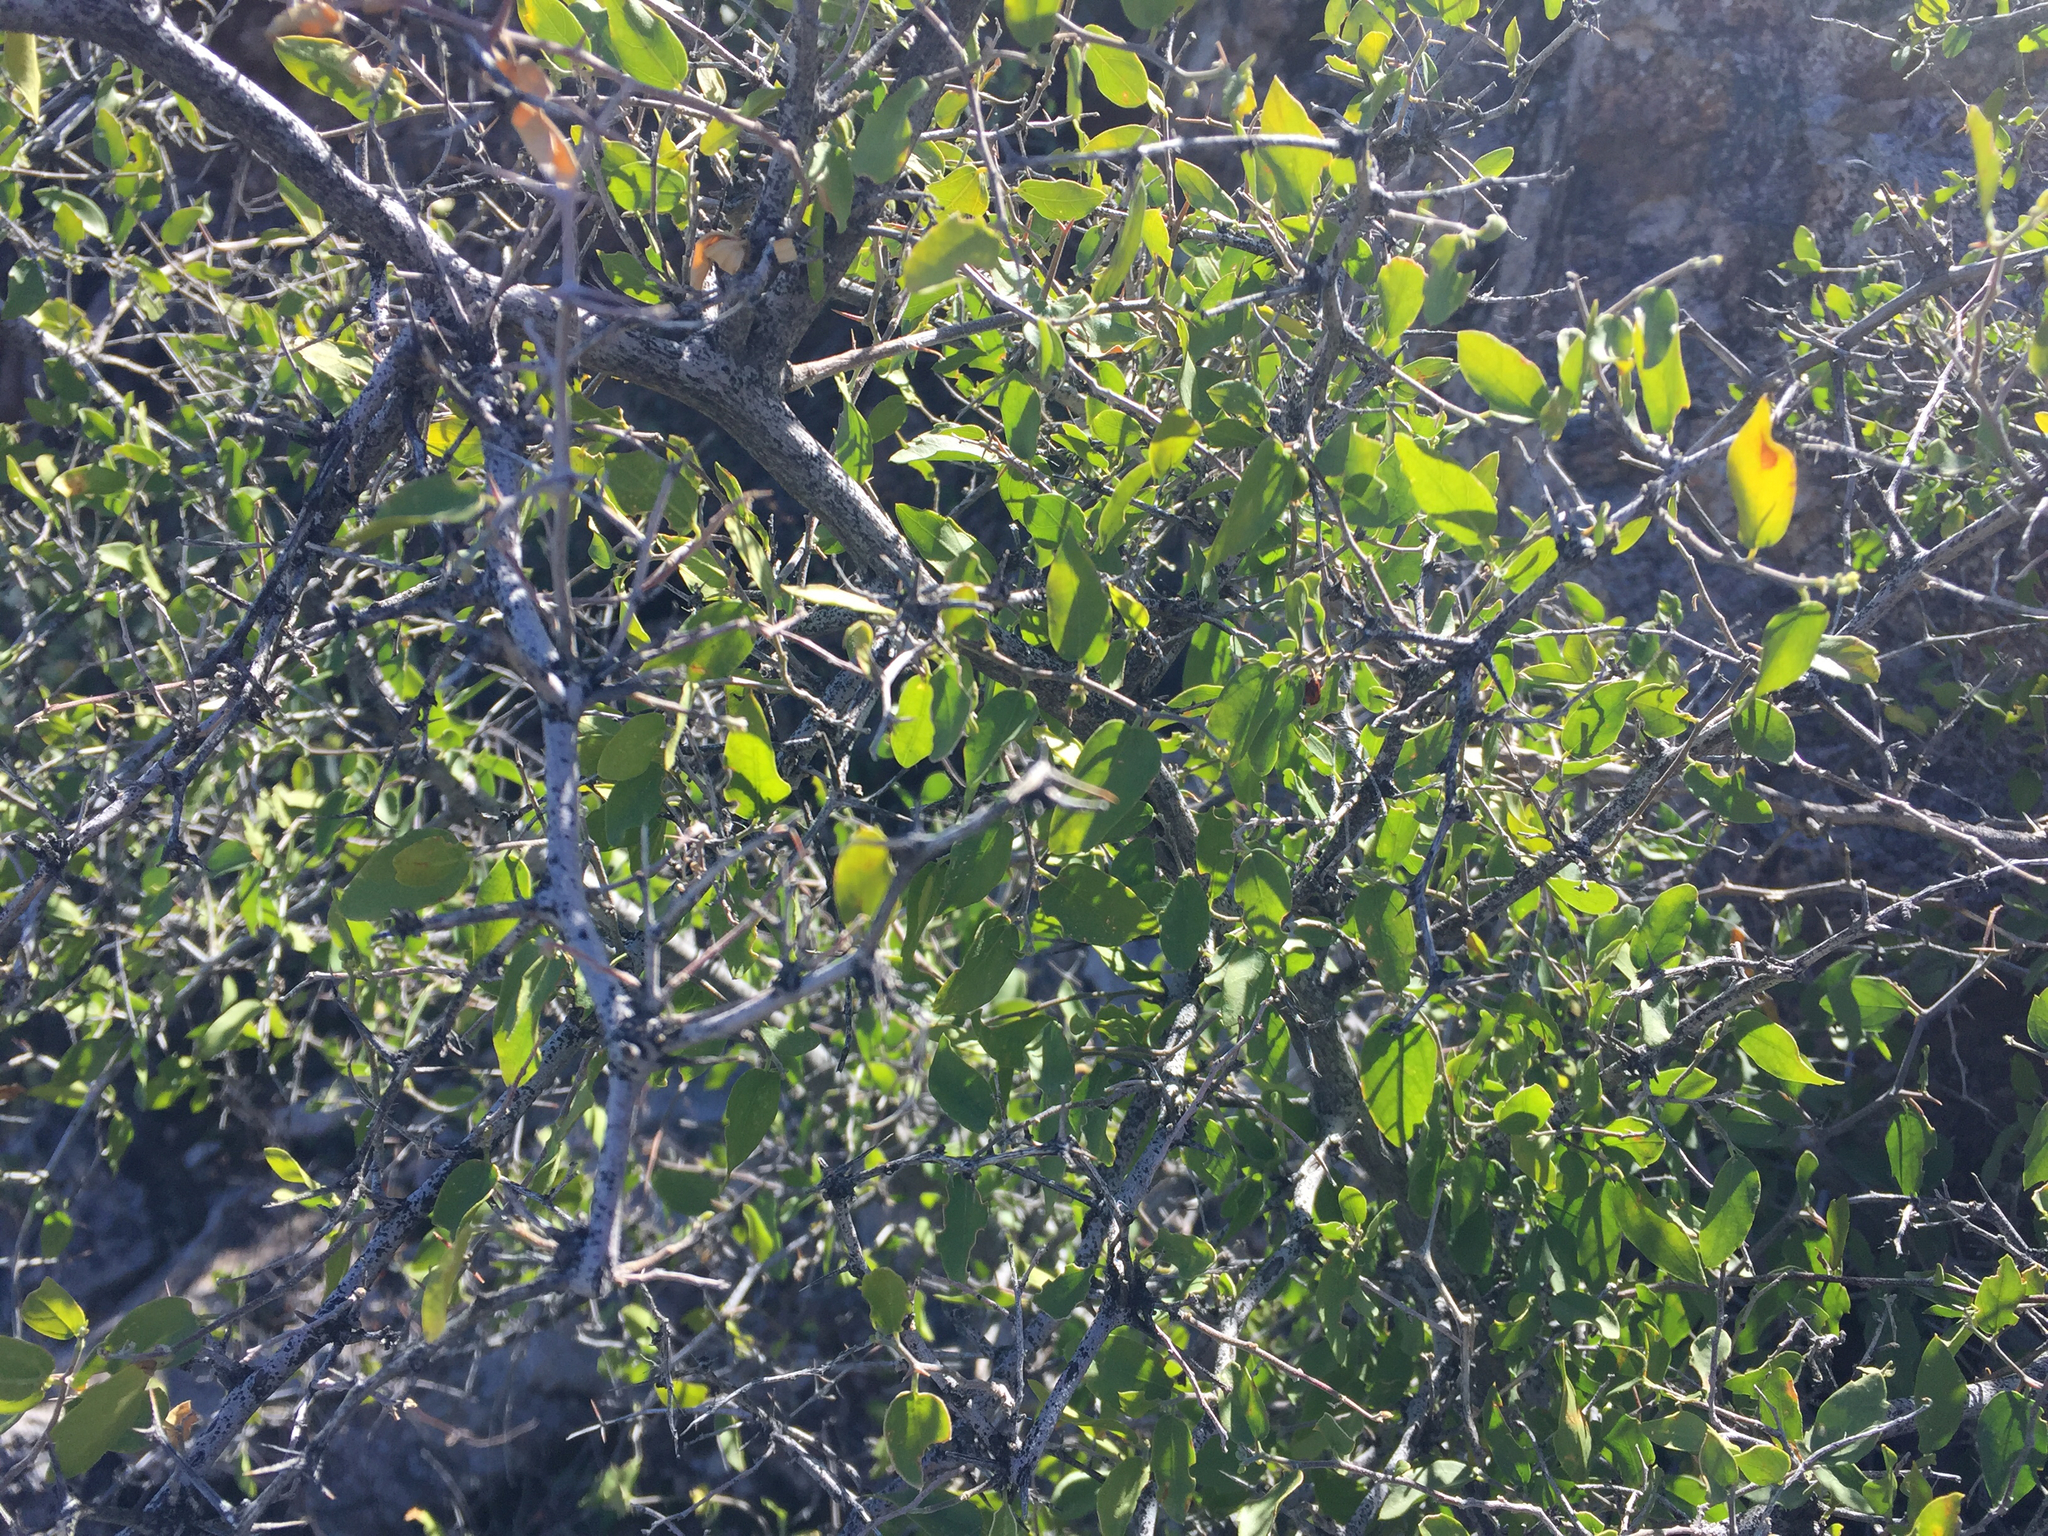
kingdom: Plantae
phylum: Tracheophyta
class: Magnoliopsida
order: Rosales
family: Cannabaceae
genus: Celtis
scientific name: Celtis pallida
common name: Desert hackberry
